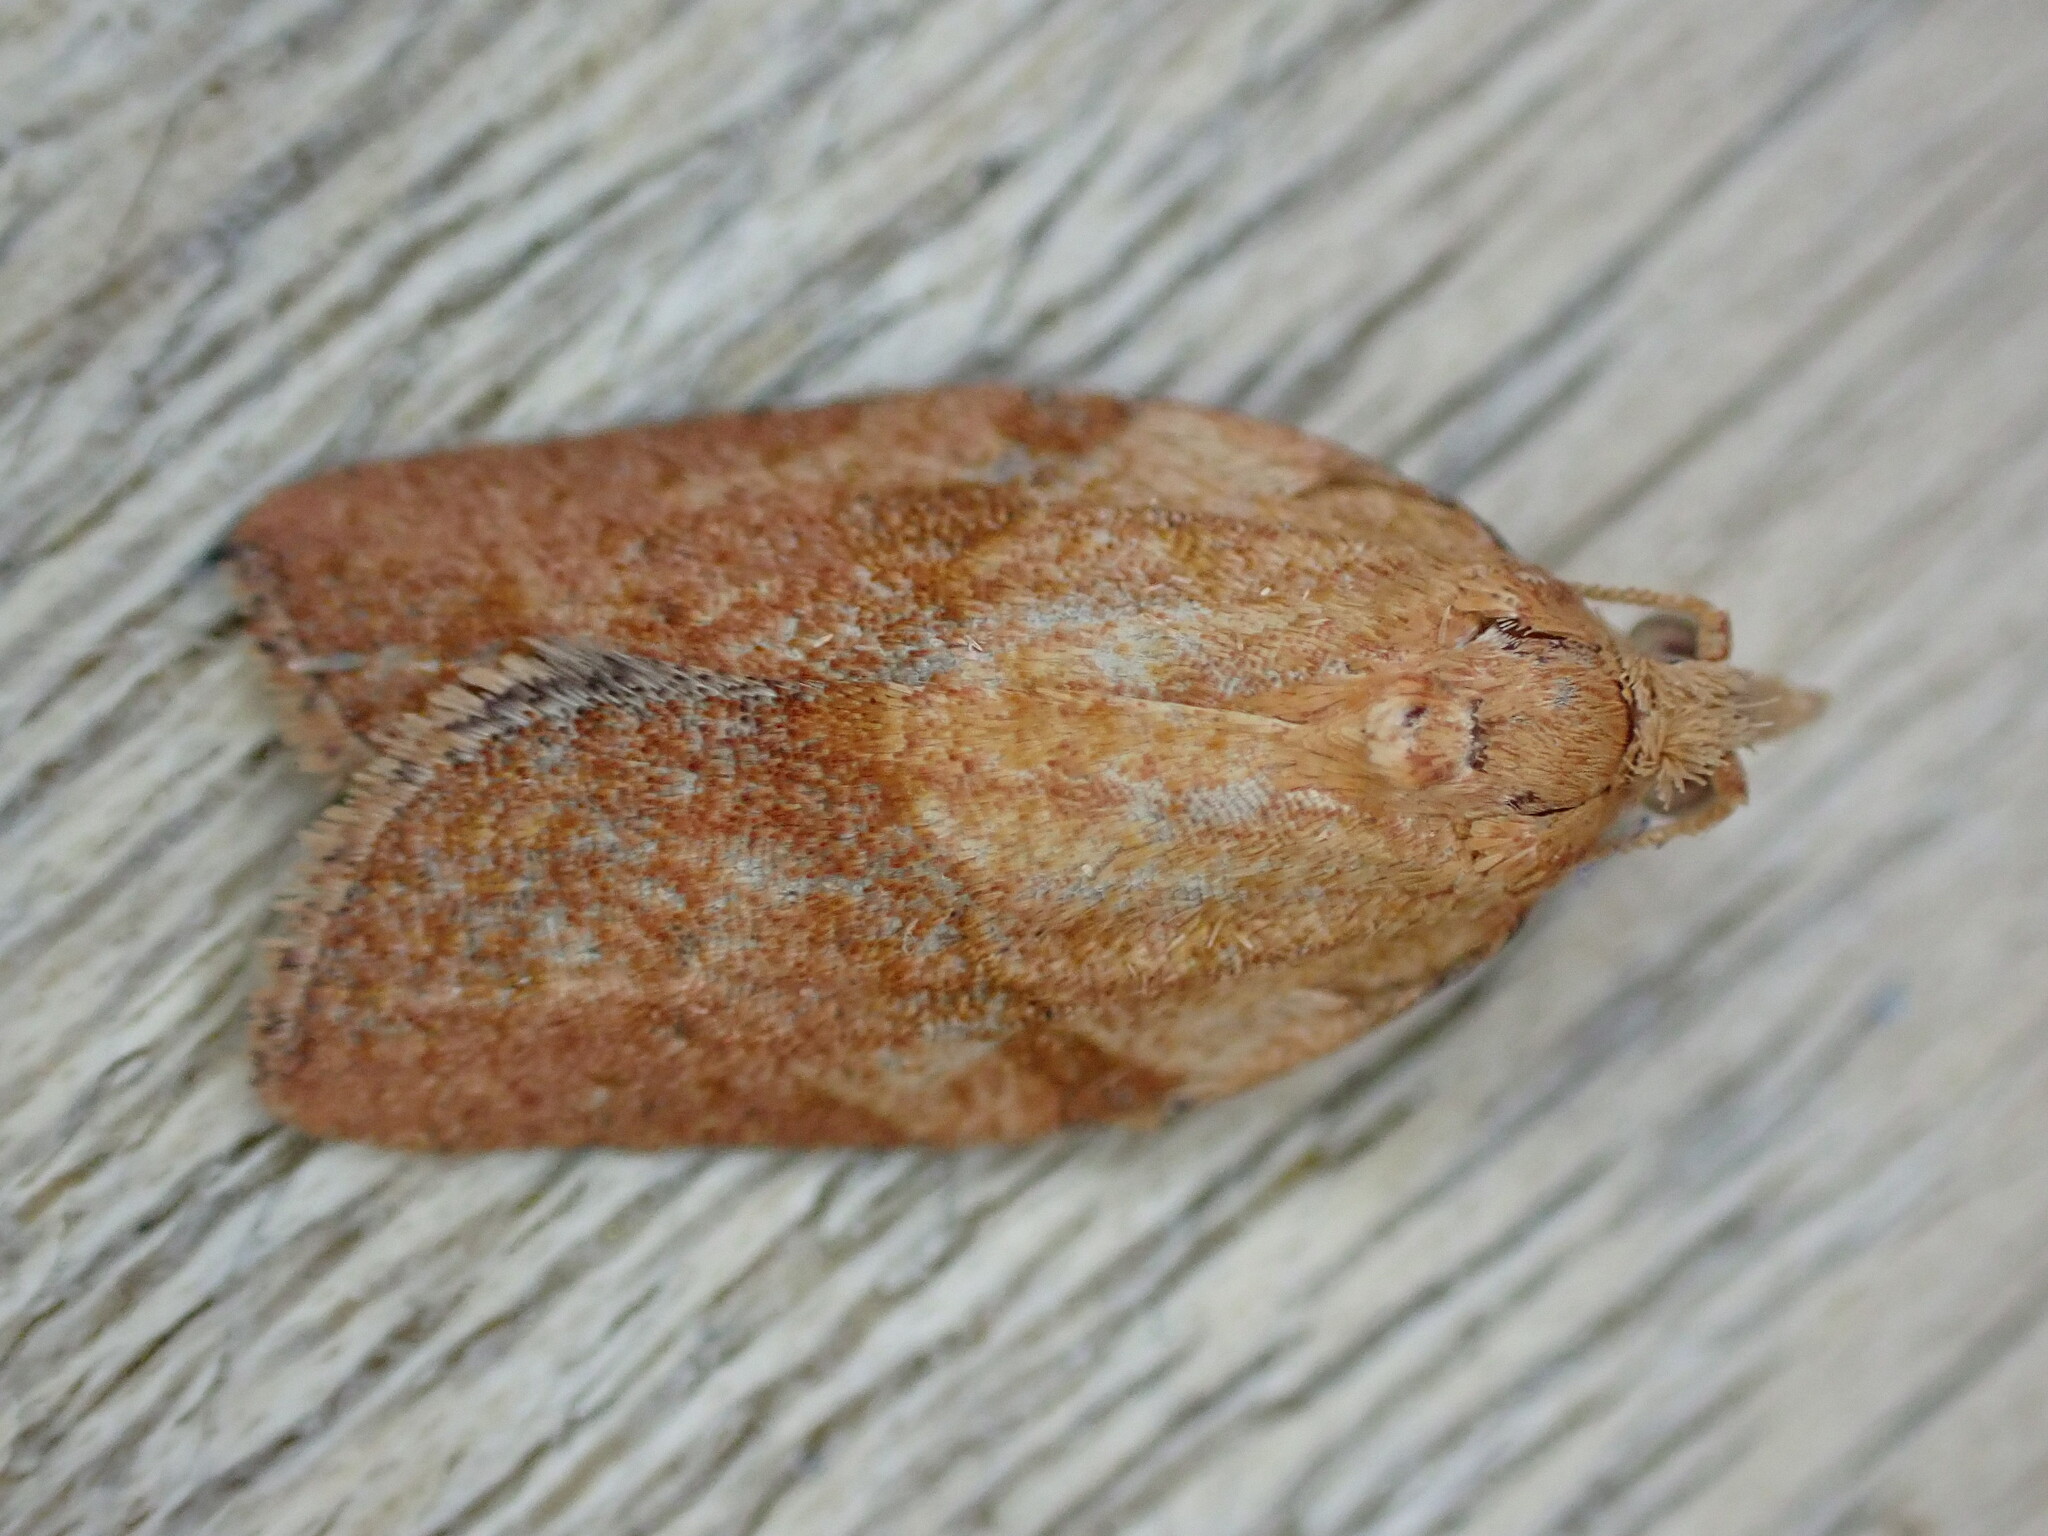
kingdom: Animalia
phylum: Arthropoda
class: Insecta
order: Lepidoptera
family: Tortricidae
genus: Epiphyas
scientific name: Epiphyas postvittana
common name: Light brown apple moth
